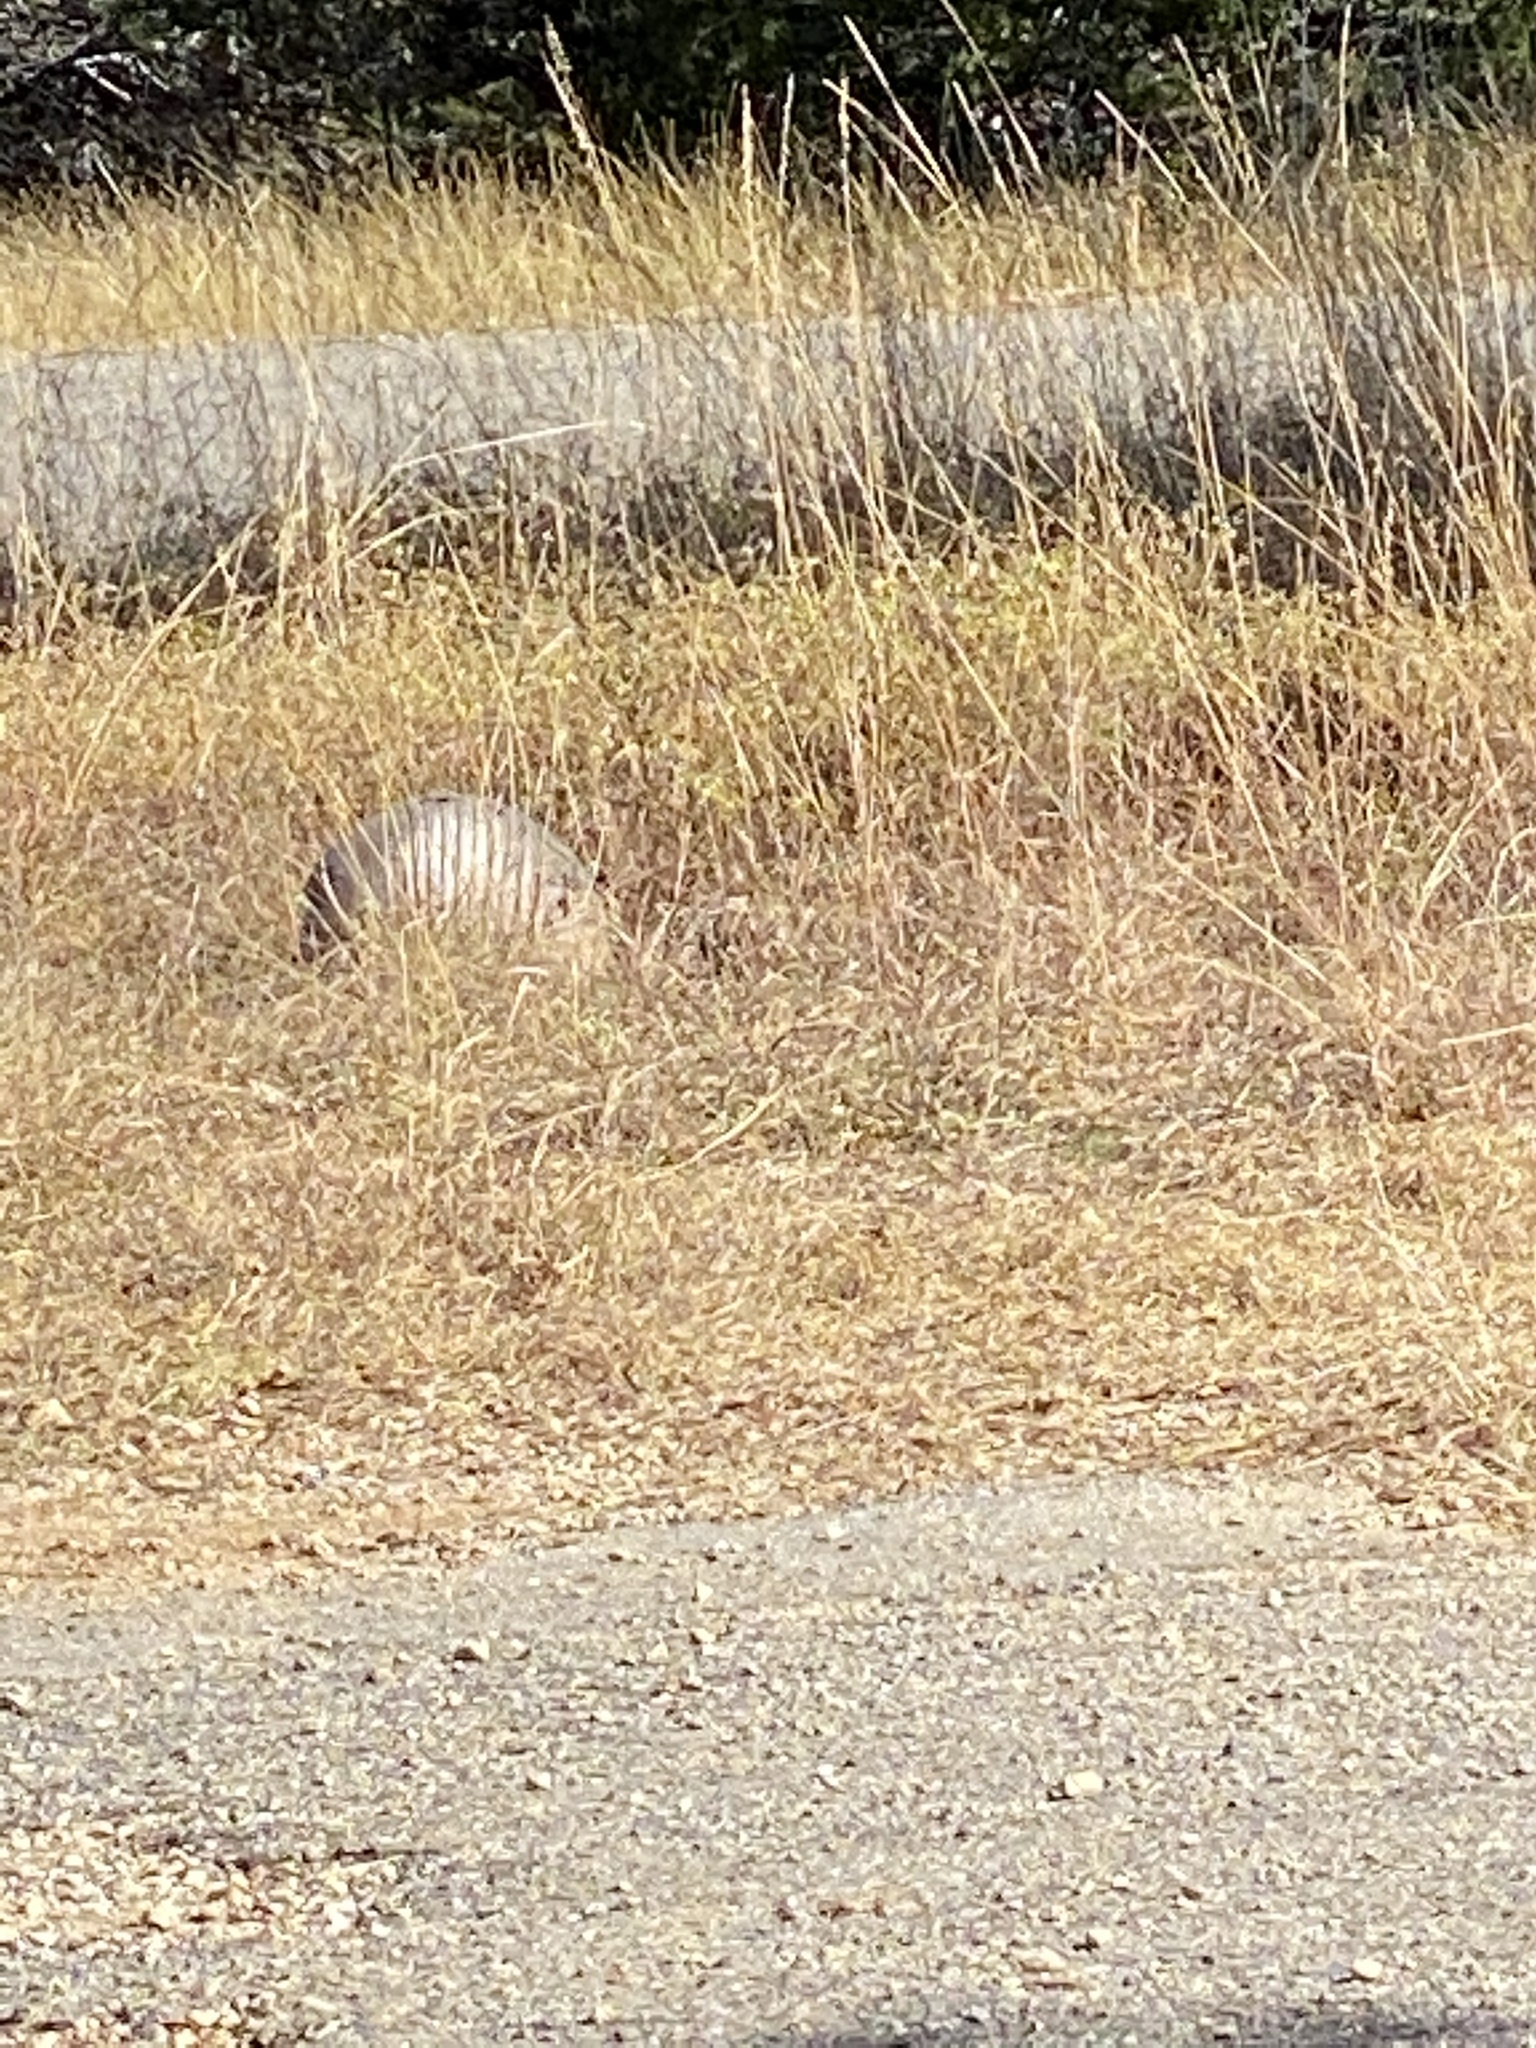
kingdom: Animalia
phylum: Chordata
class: Mammalia
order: Cingulata
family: Dasypodidae
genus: Dasypus
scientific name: Dasypus novemcinctus
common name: Nine-banded armadillo
